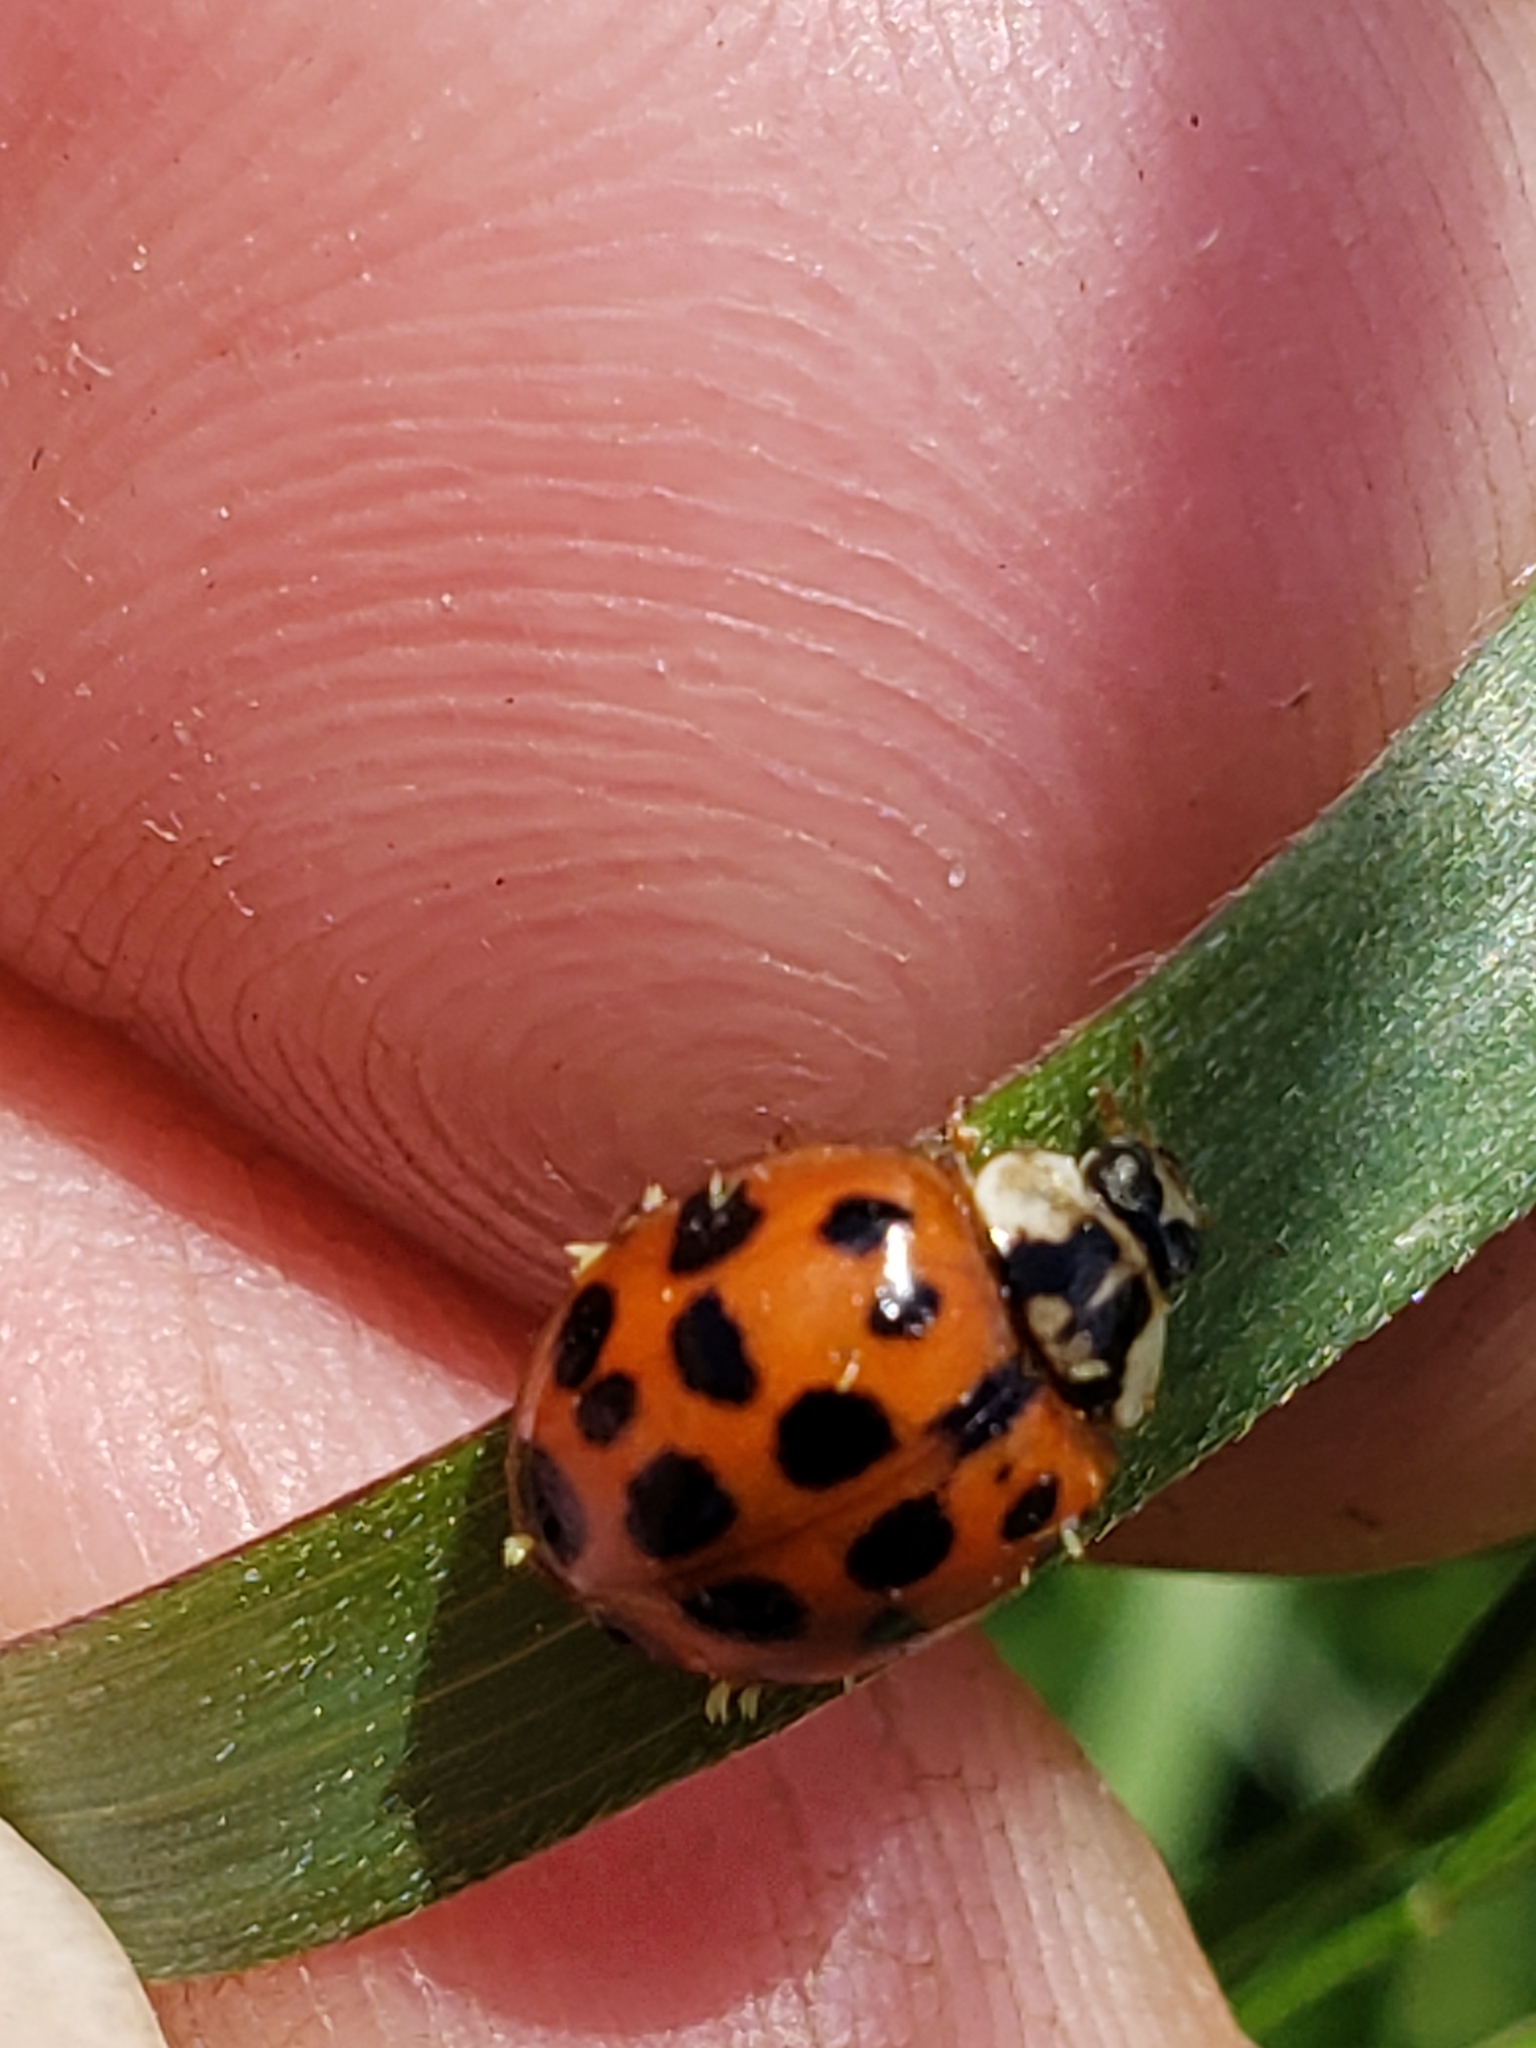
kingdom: Animalia
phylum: Arthropoda
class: Insecta
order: Coleoptera
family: Coccinellidae
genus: Harmonia
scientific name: Harmonia axyridis
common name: Harlequin ladybird
